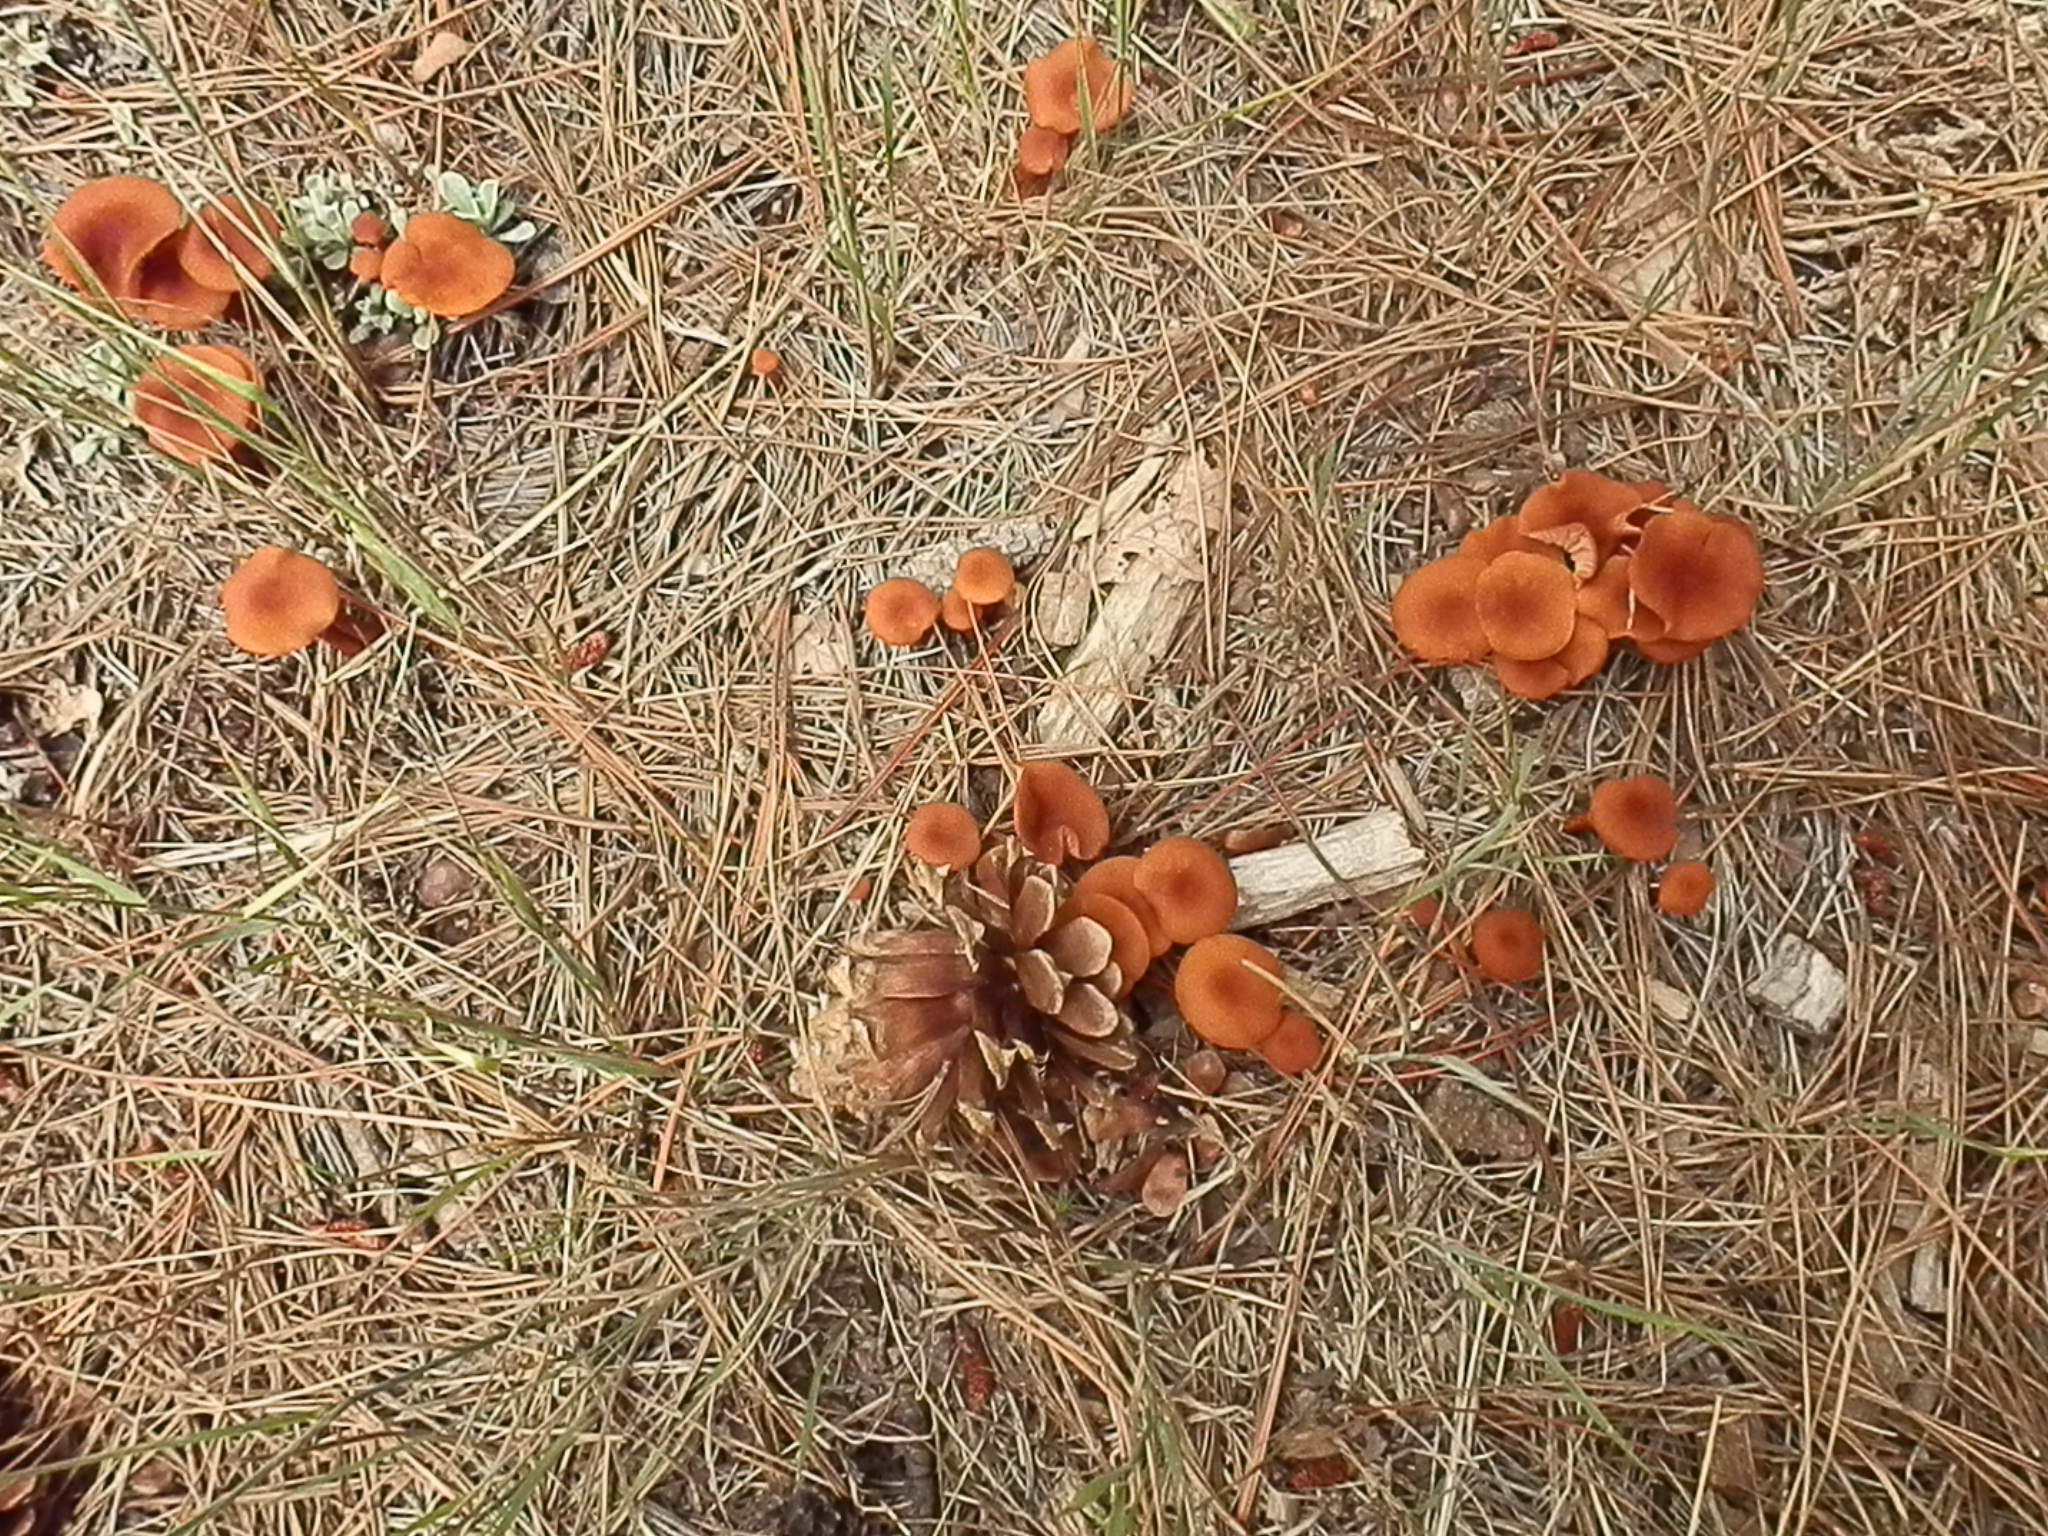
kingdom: Fungi
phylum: Basidiomycota
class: Agaricomycetes
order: Agaricales
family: Hydnangiaceae
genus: Laccaria
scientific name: Laccaria trichodermophora
